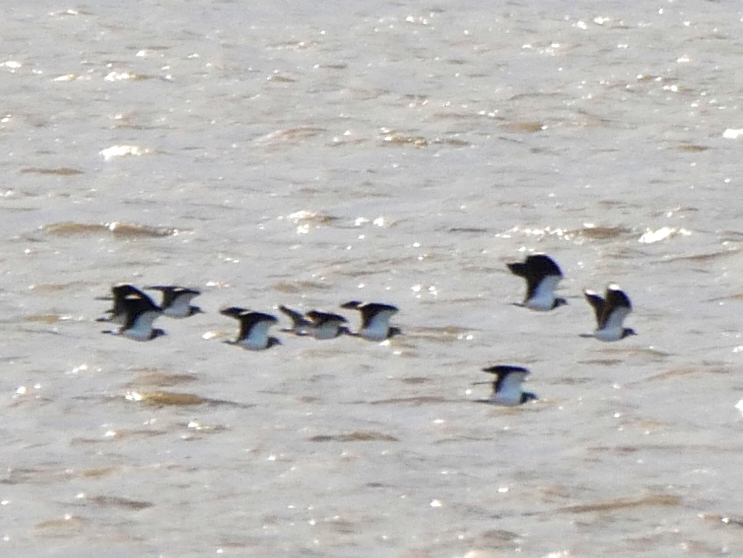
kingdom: Animalia
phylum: Chordata
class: Aves
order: Charadriiformes
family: Charadriidae
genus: Vanellus
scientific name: Vanellus vanellus
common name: Northern lapwing
